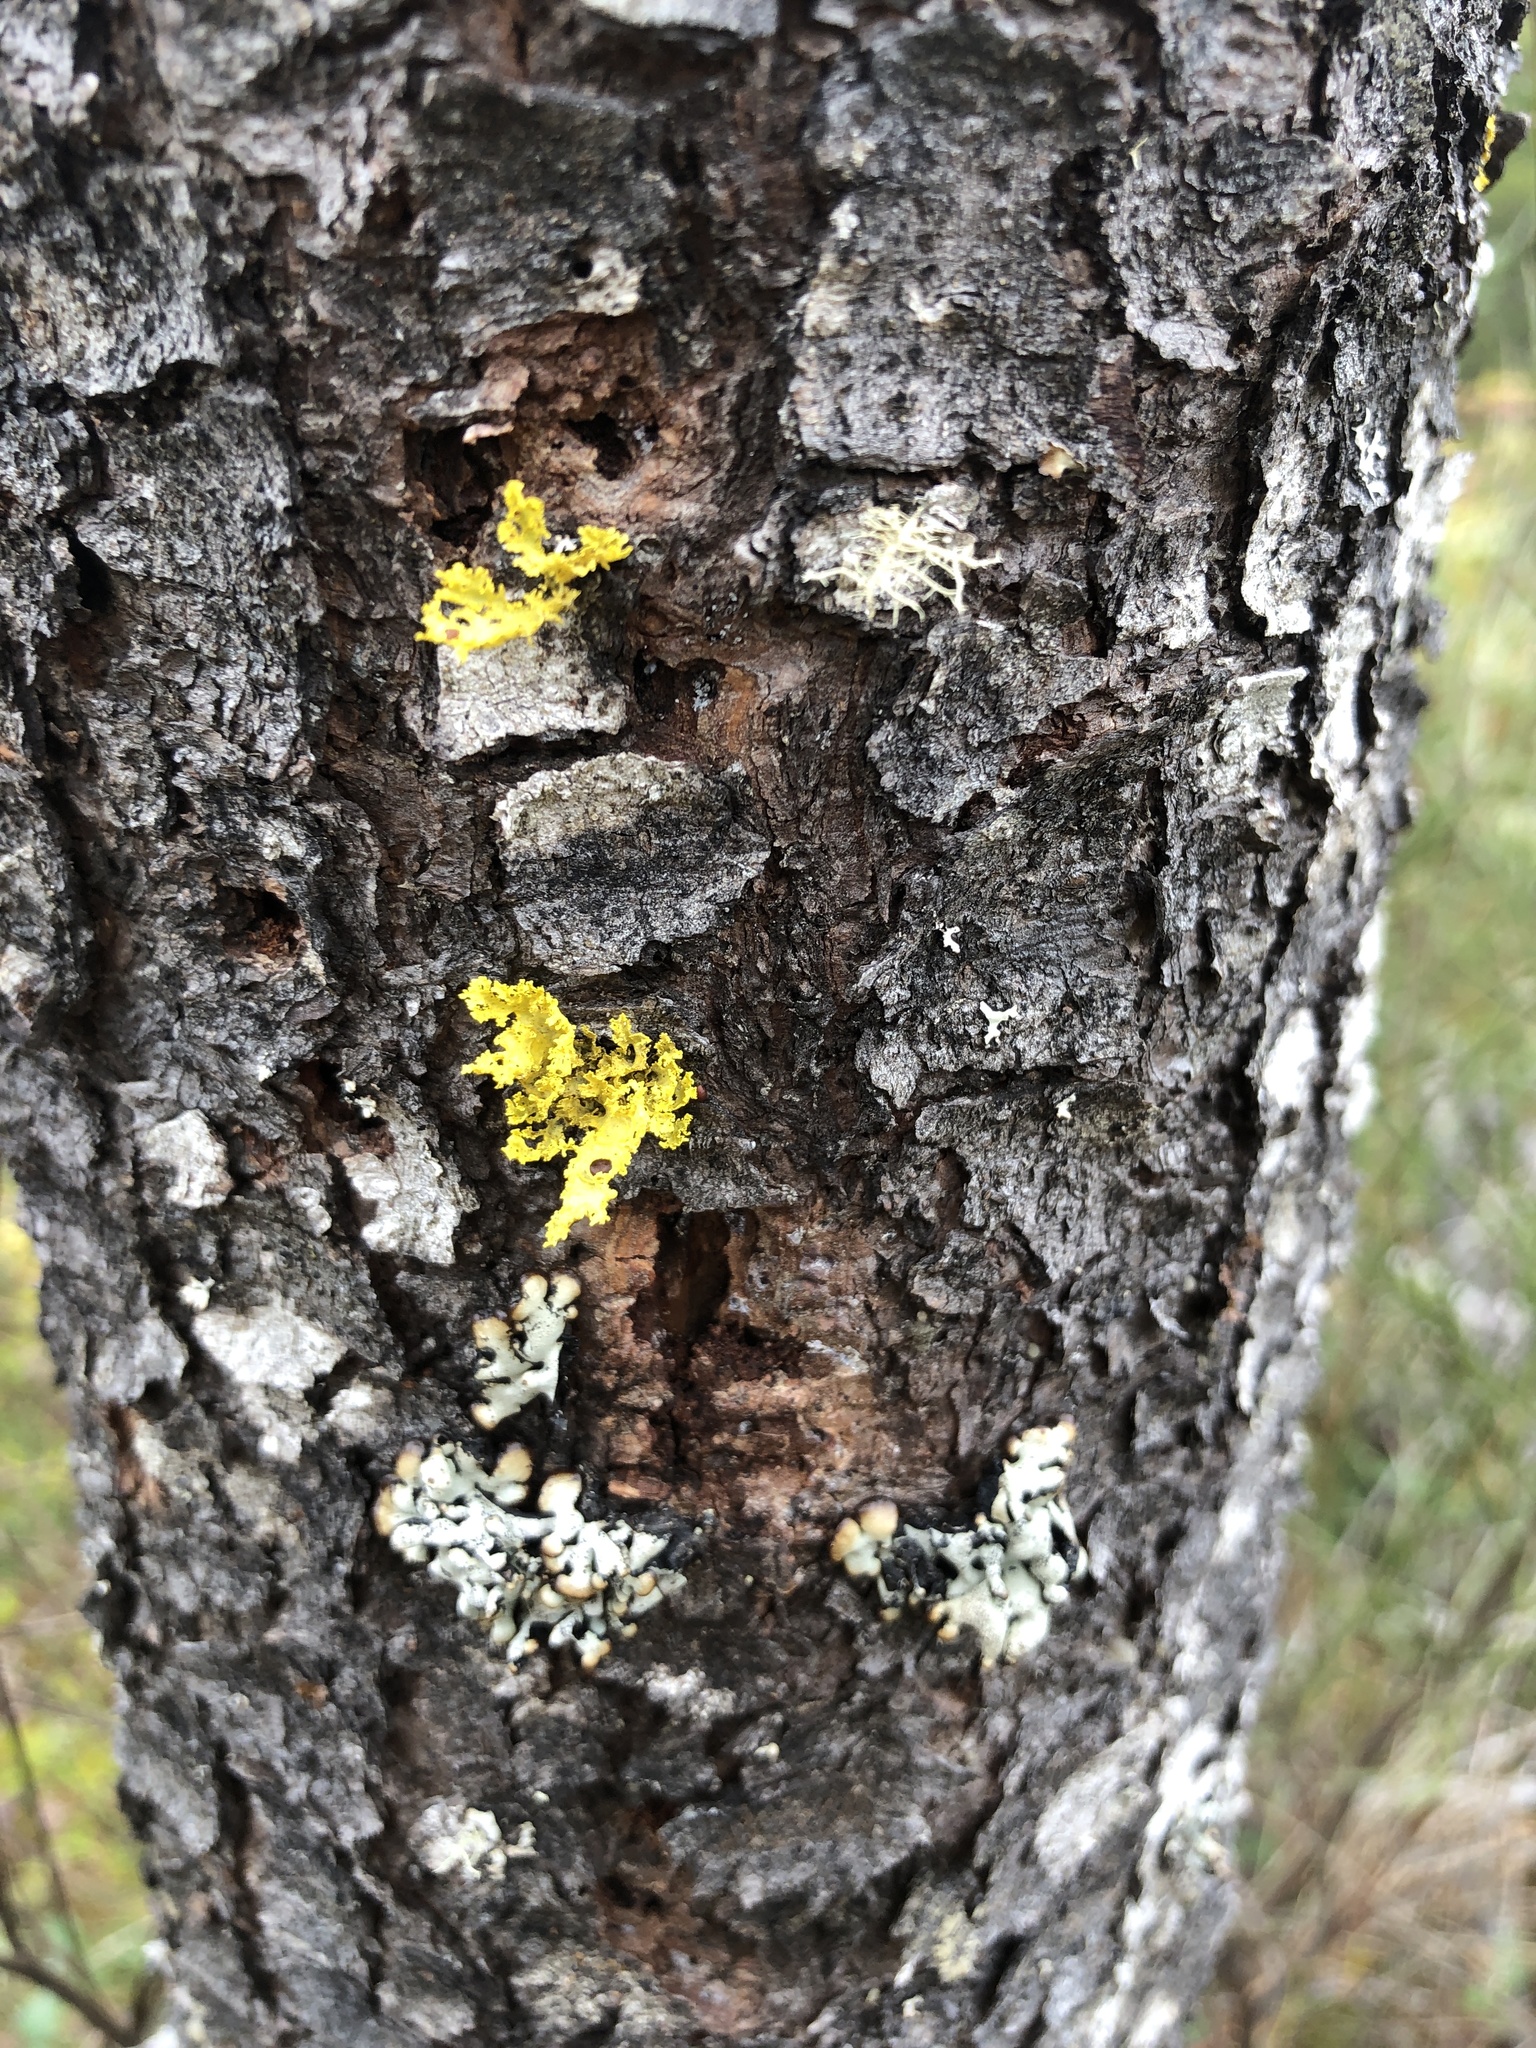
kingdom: Fungi
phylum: Ascomycota
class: Lecanoromycetes
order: Lecanorales
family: Parmeliaceae
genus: Vulpicida
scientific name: Vulpicida canadensis
